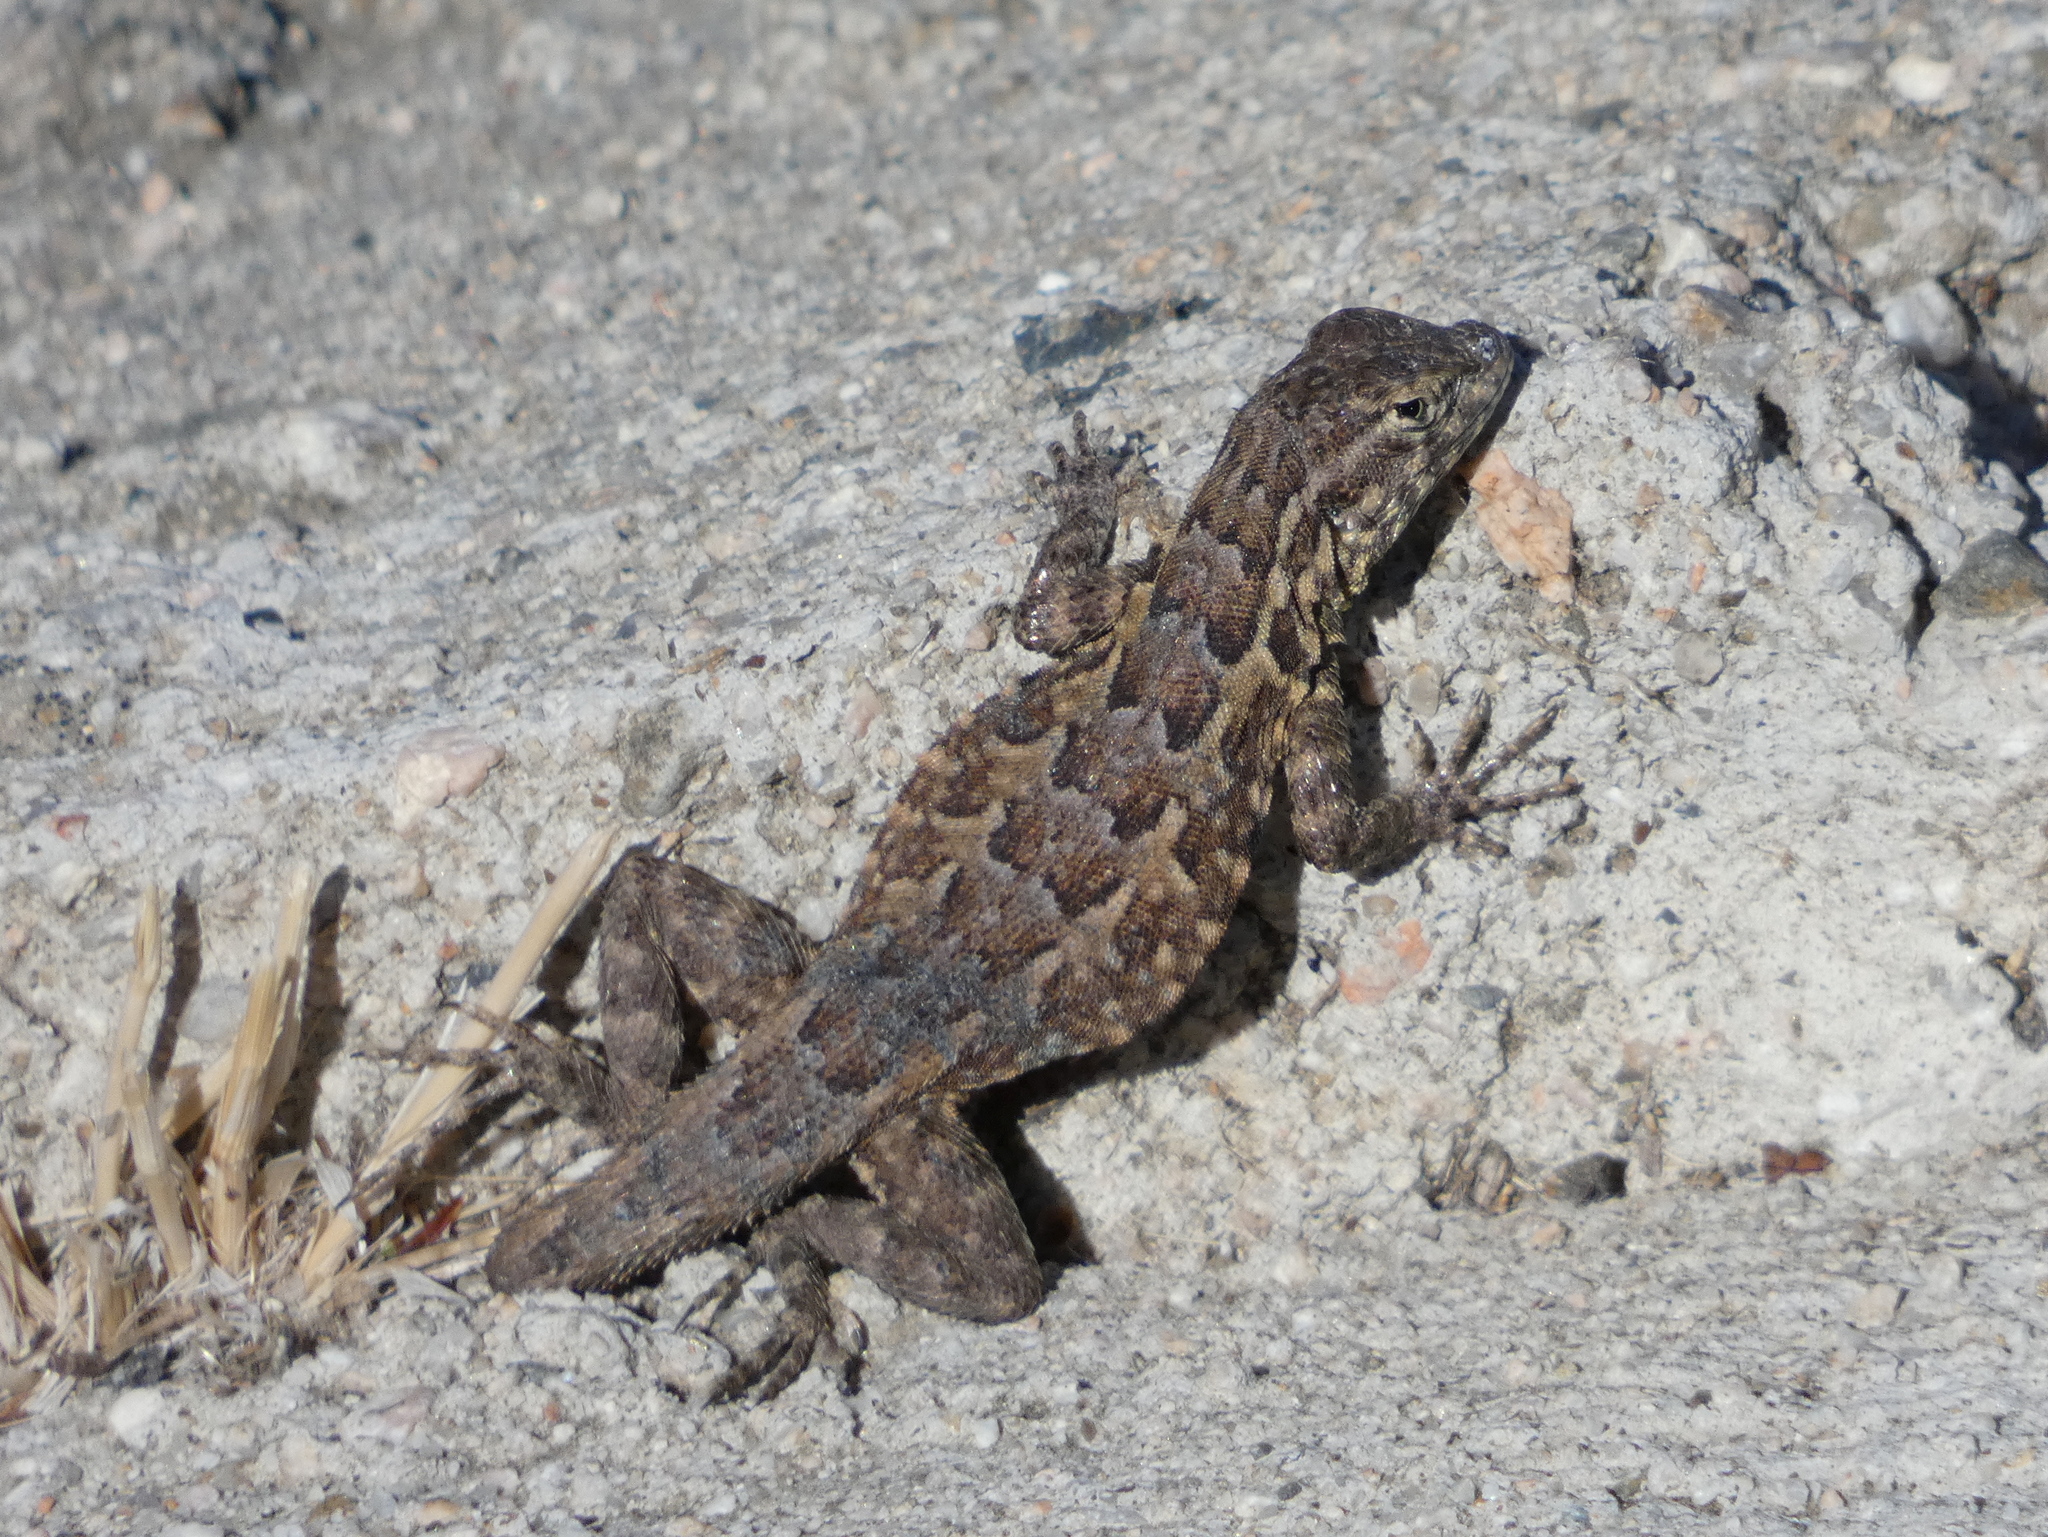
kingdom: Animalia
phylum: Chordata
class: Squamata
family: Phrynosomatidae
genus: Uta
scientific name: Uta stansburiana
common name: Side-blotched lizard
